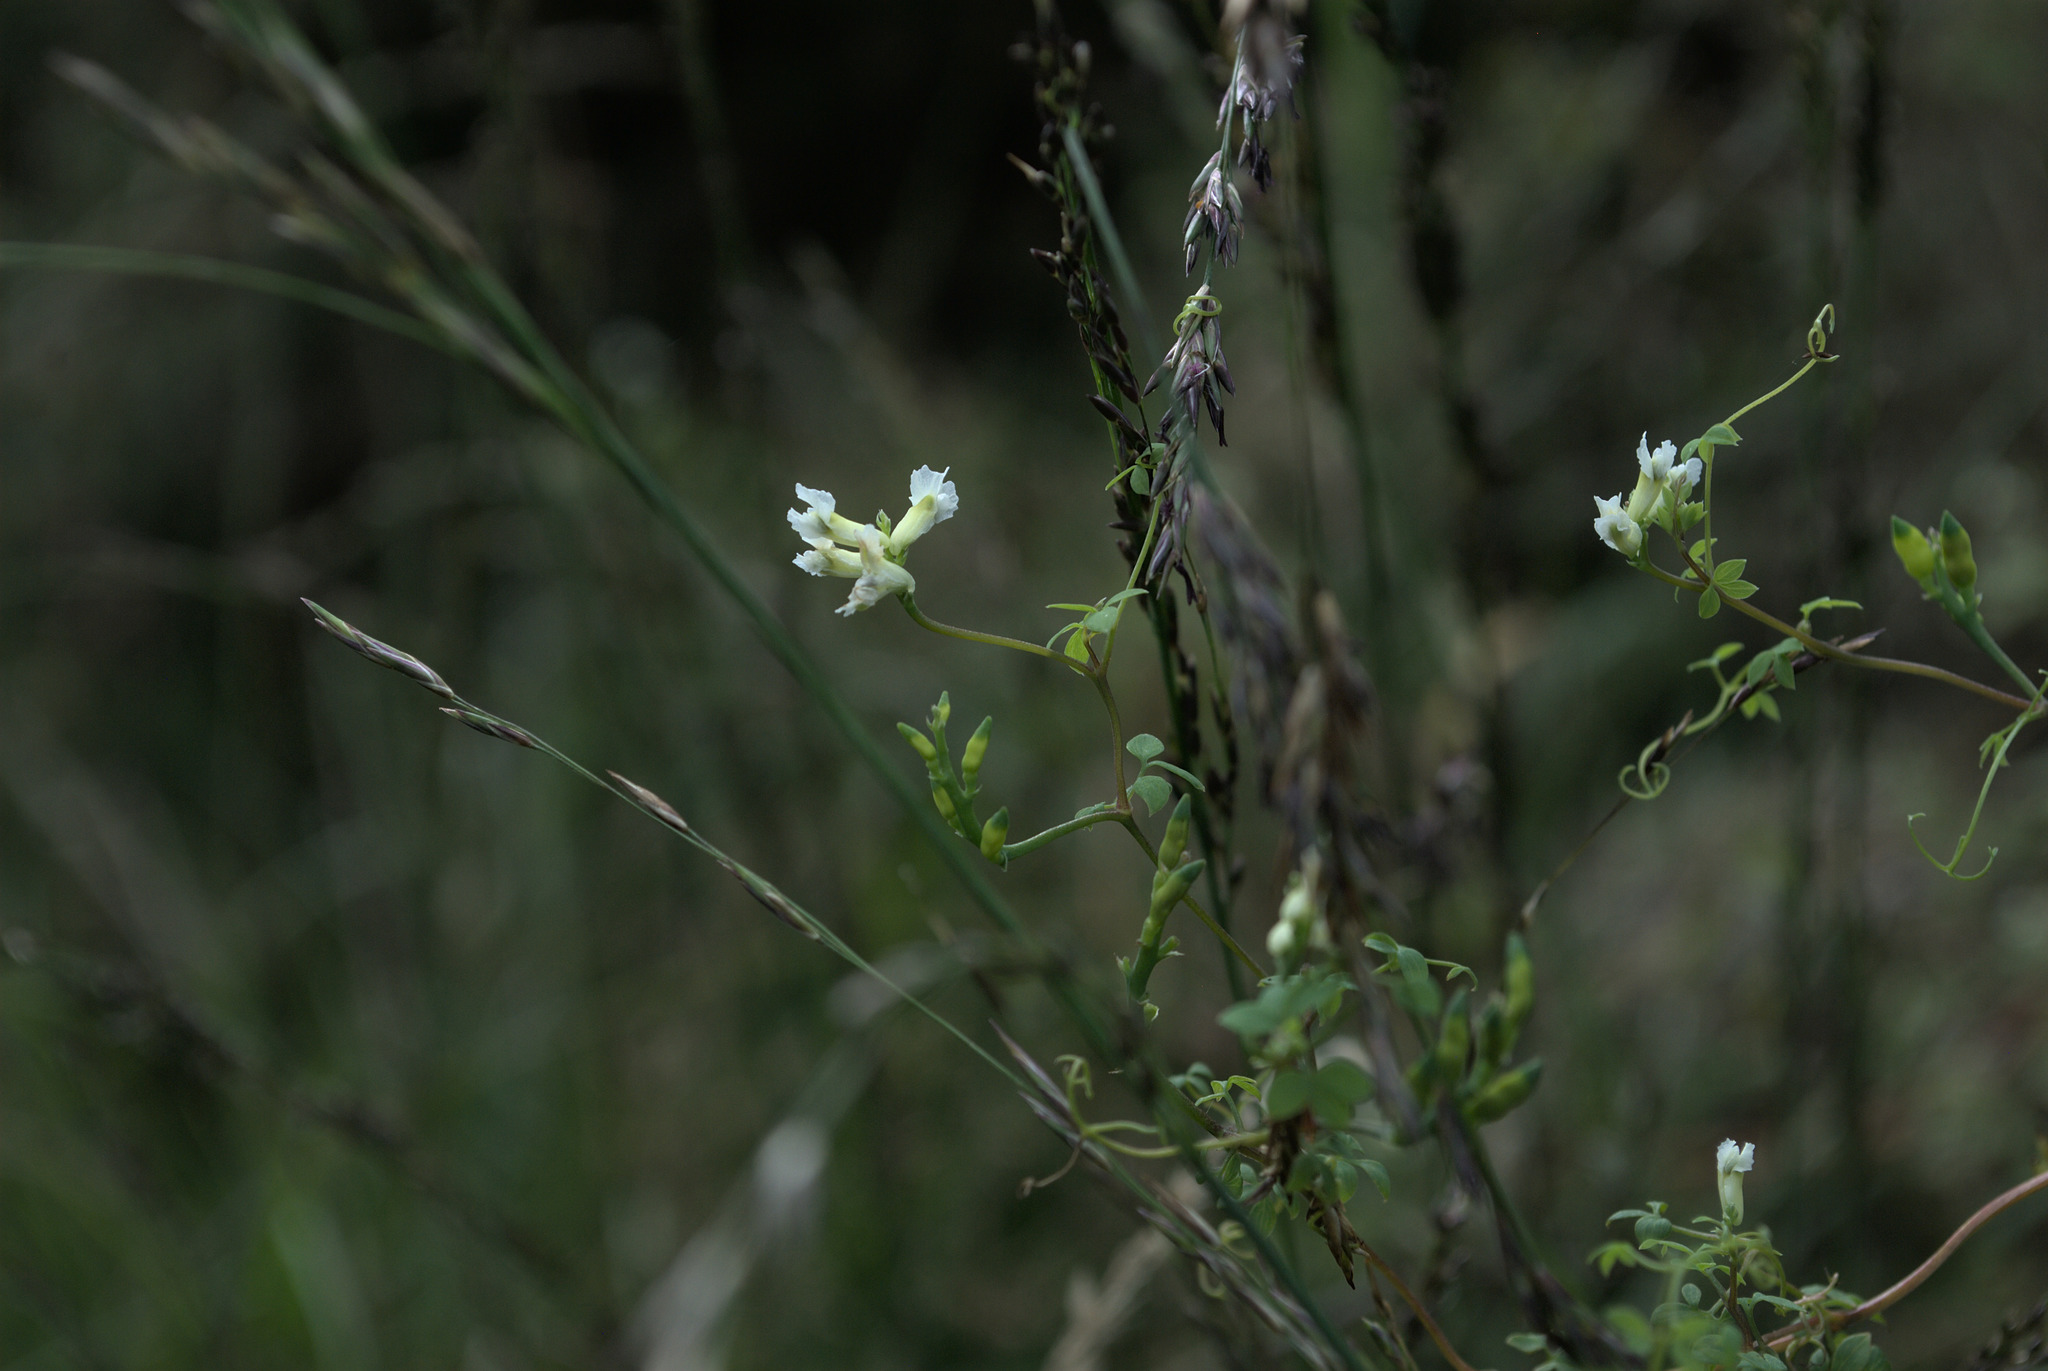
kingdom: Plantae
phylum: Tracheophyta
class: Magnoliopsida
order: Ranunculales
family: Papaveraceae
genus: Ceratocapnos
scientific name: Ceratocapnos claviculata
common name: Climbing corydalis
